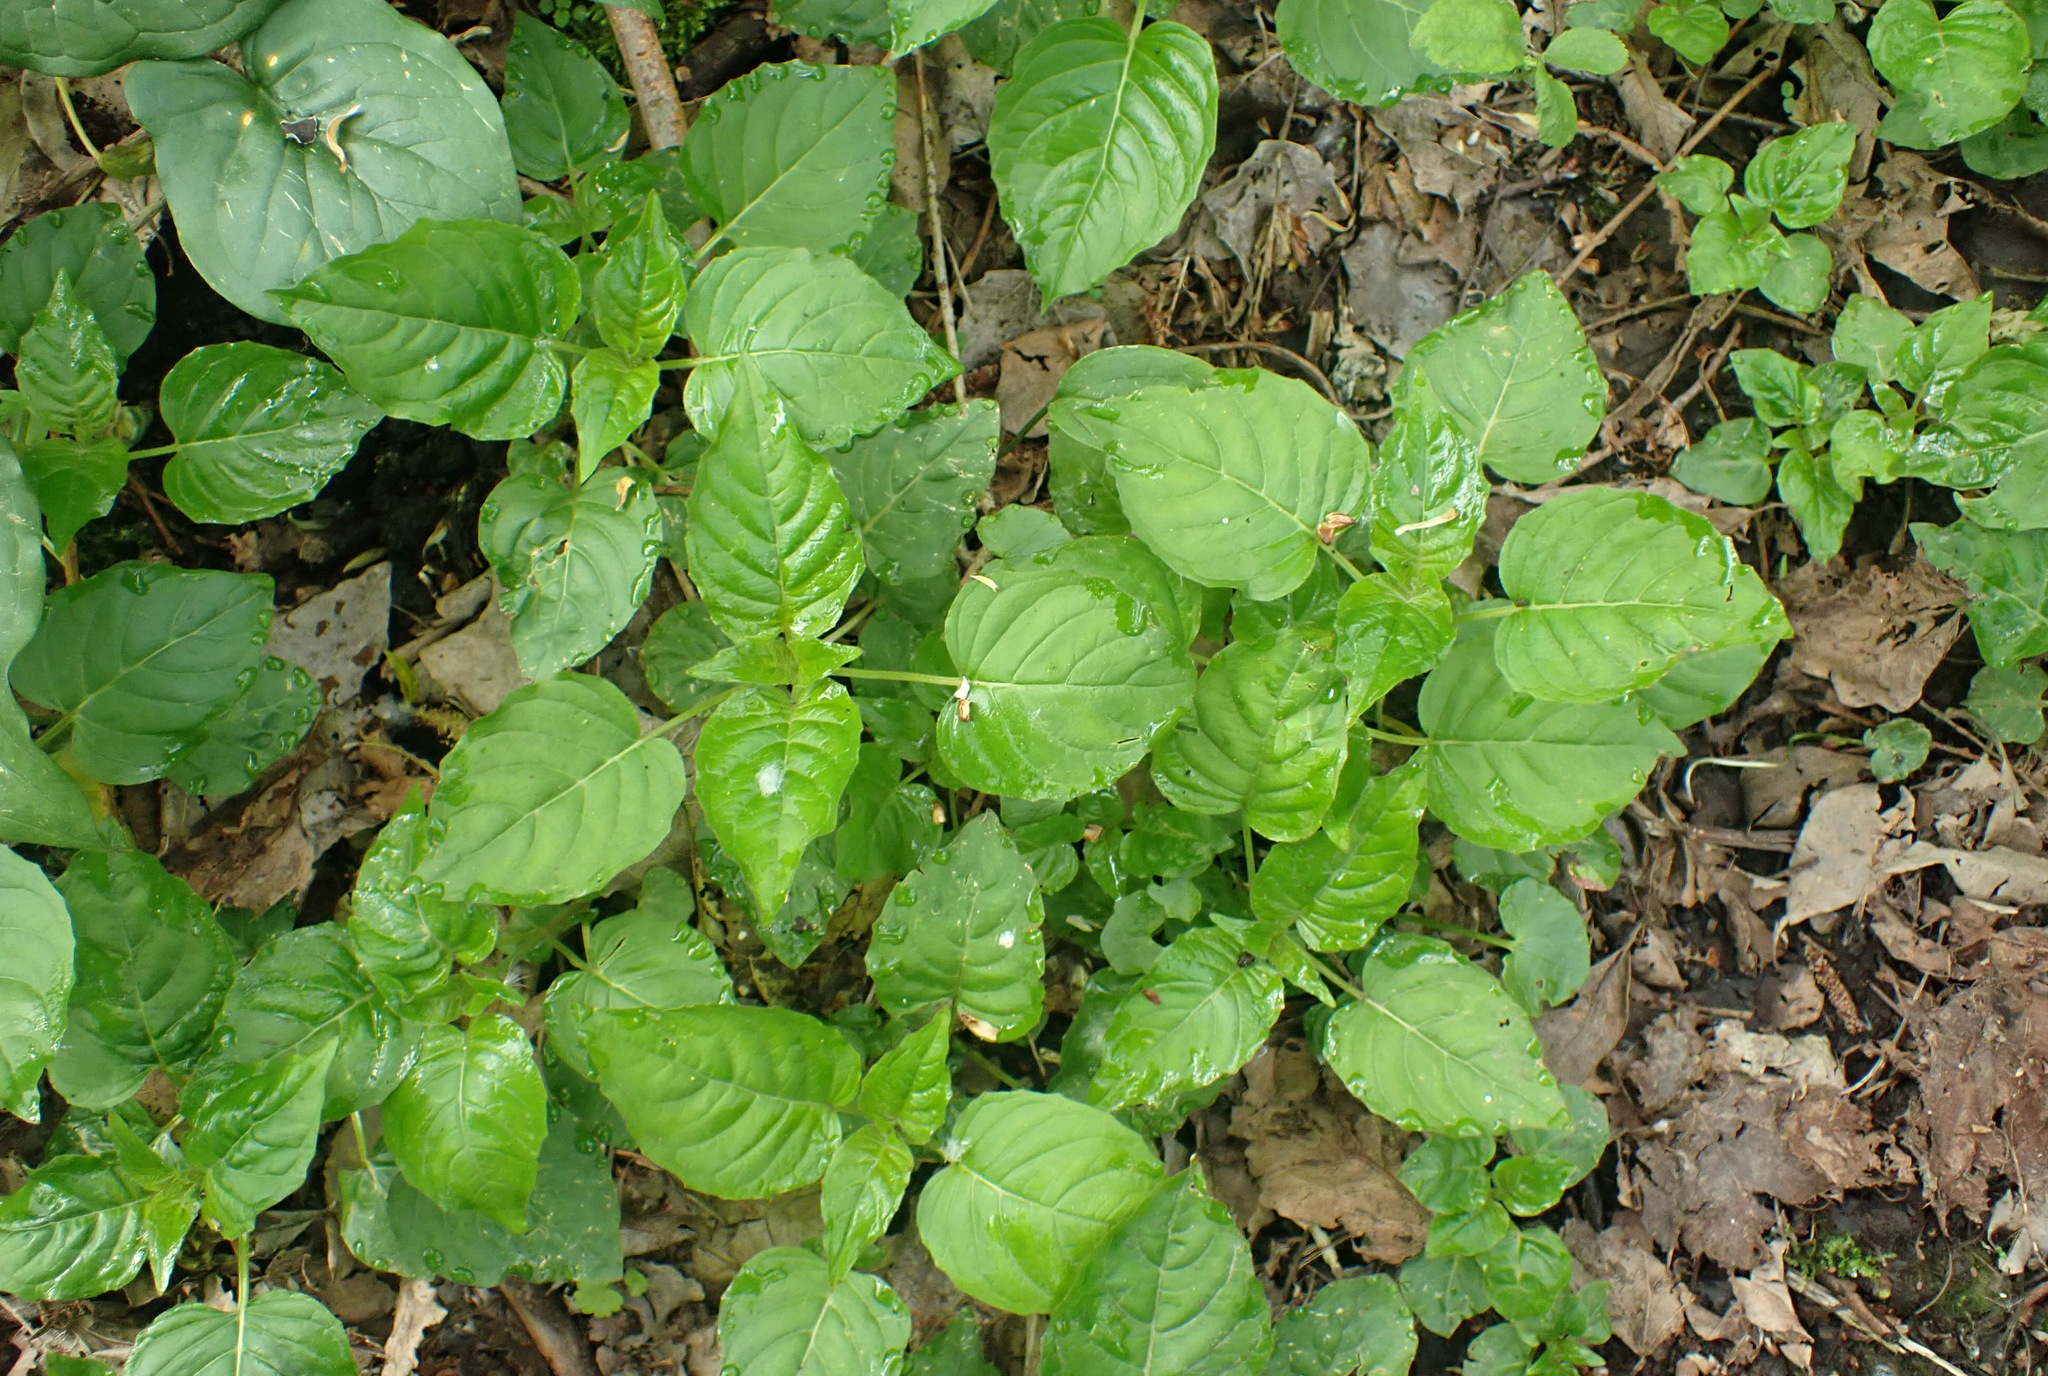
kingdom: Plantae
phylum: Tracheophyta
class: Magnoliopsida
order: Myrtales
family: Onagraceae
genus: Circaea
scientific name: Circaea lutetiana
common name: Enchanter's-nightshade
